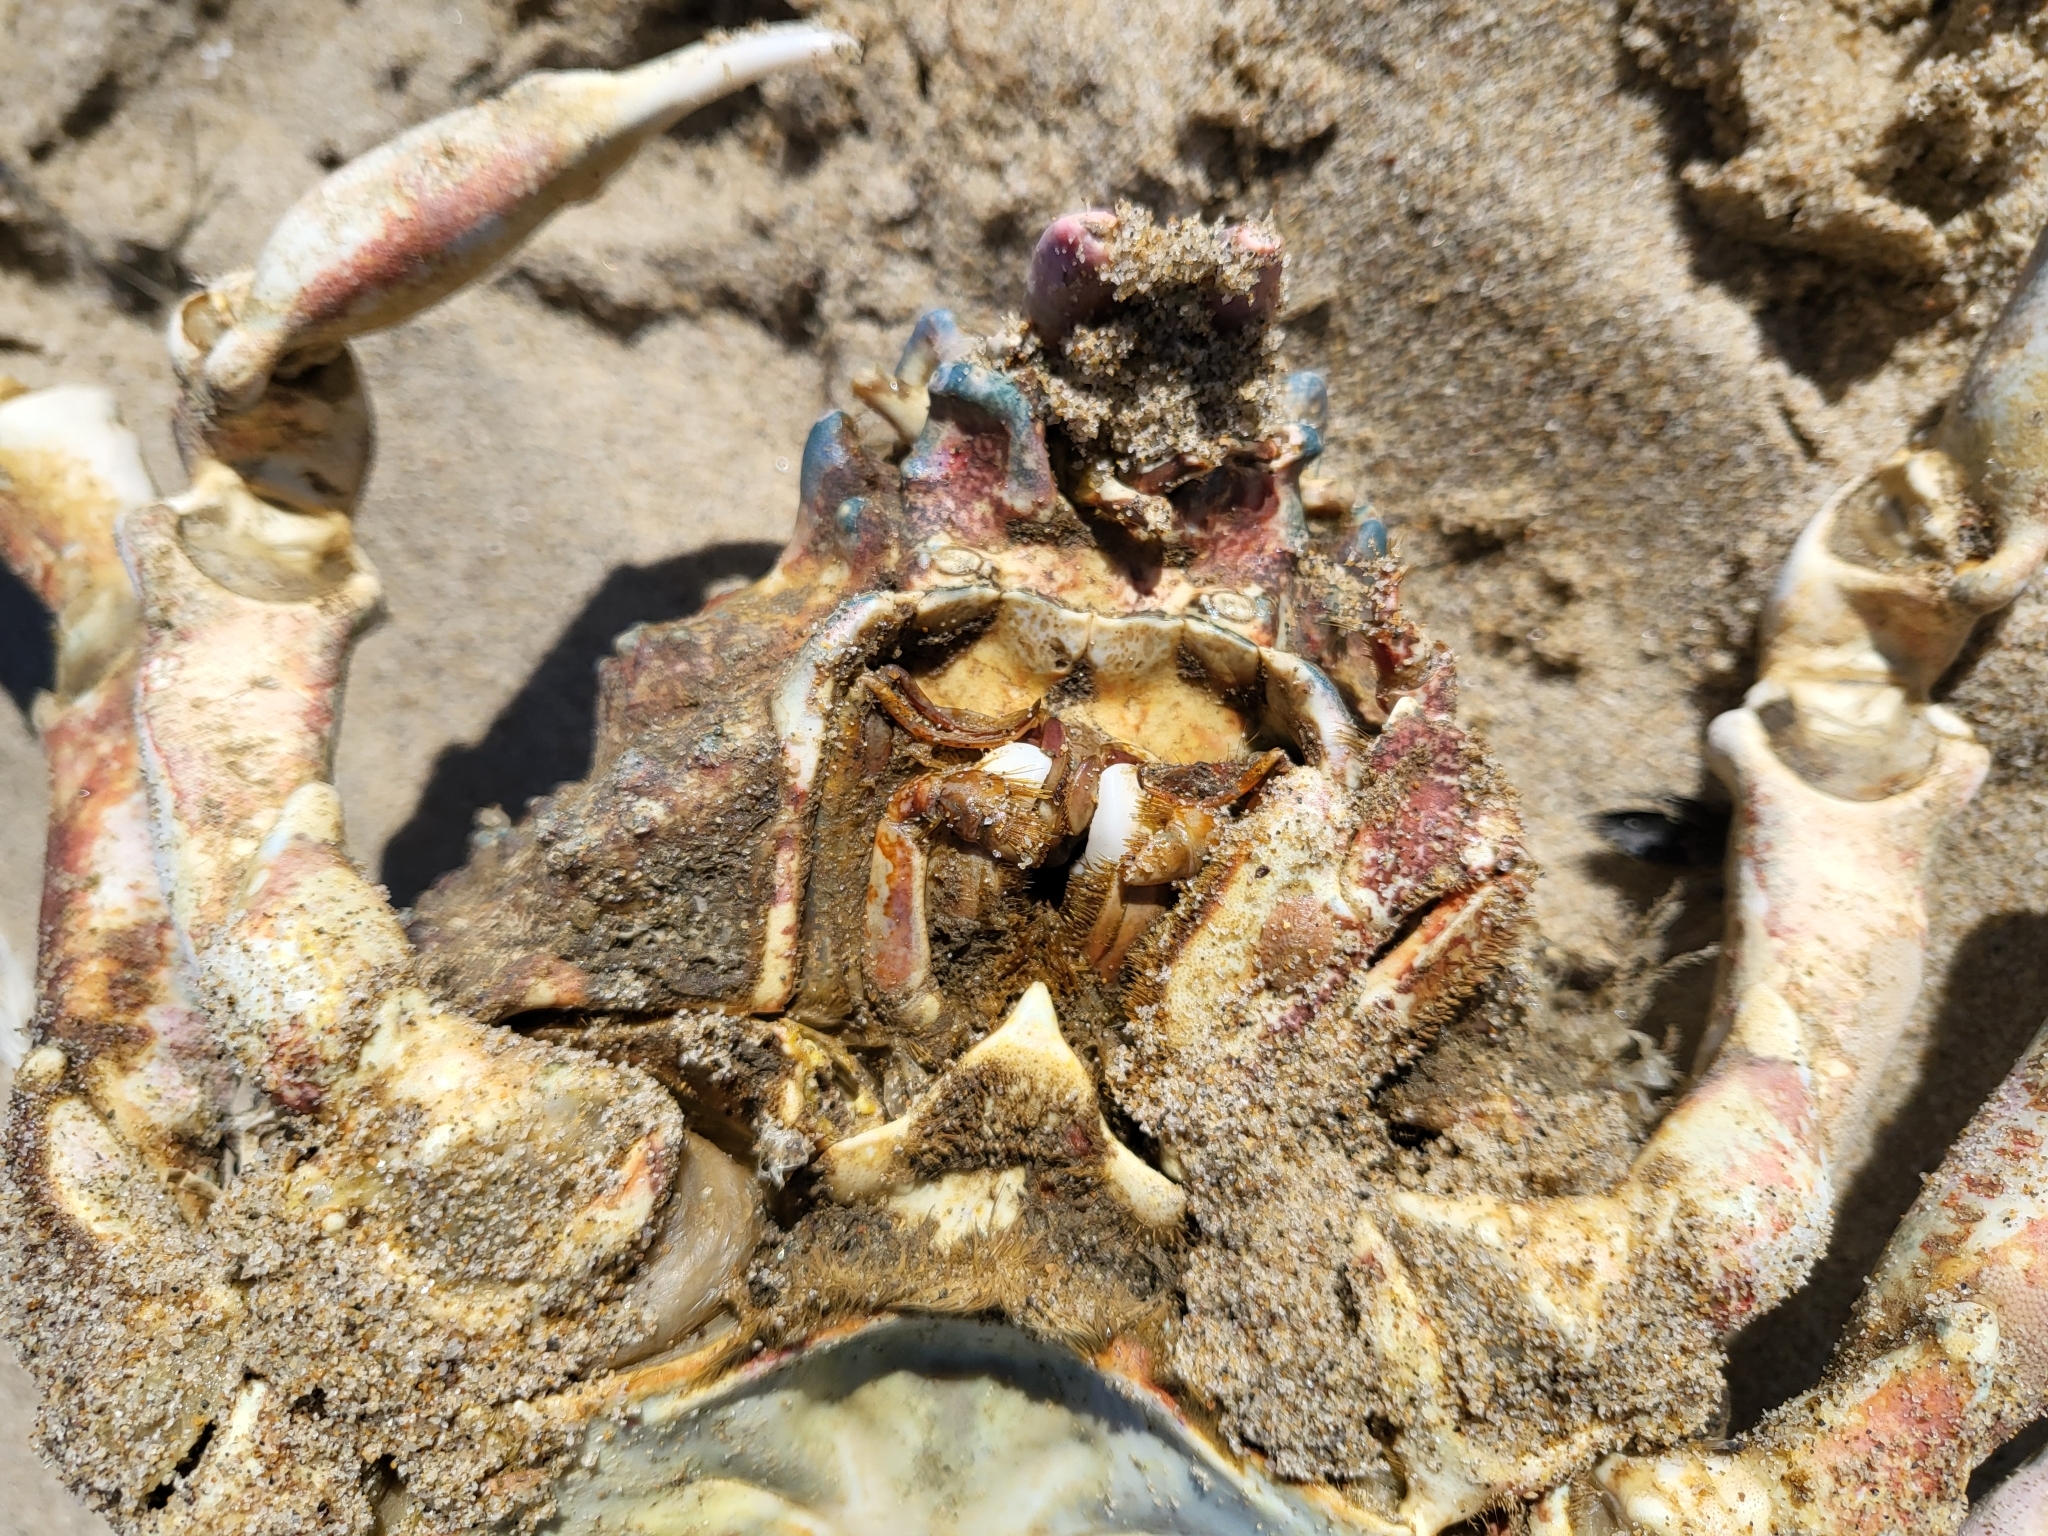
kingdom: Animalia
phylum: Arthropoda
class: Malacostraca
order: Decapoda
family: Epialtidae
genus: Loxorhynchus
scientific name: Loxorhynchus grandis
